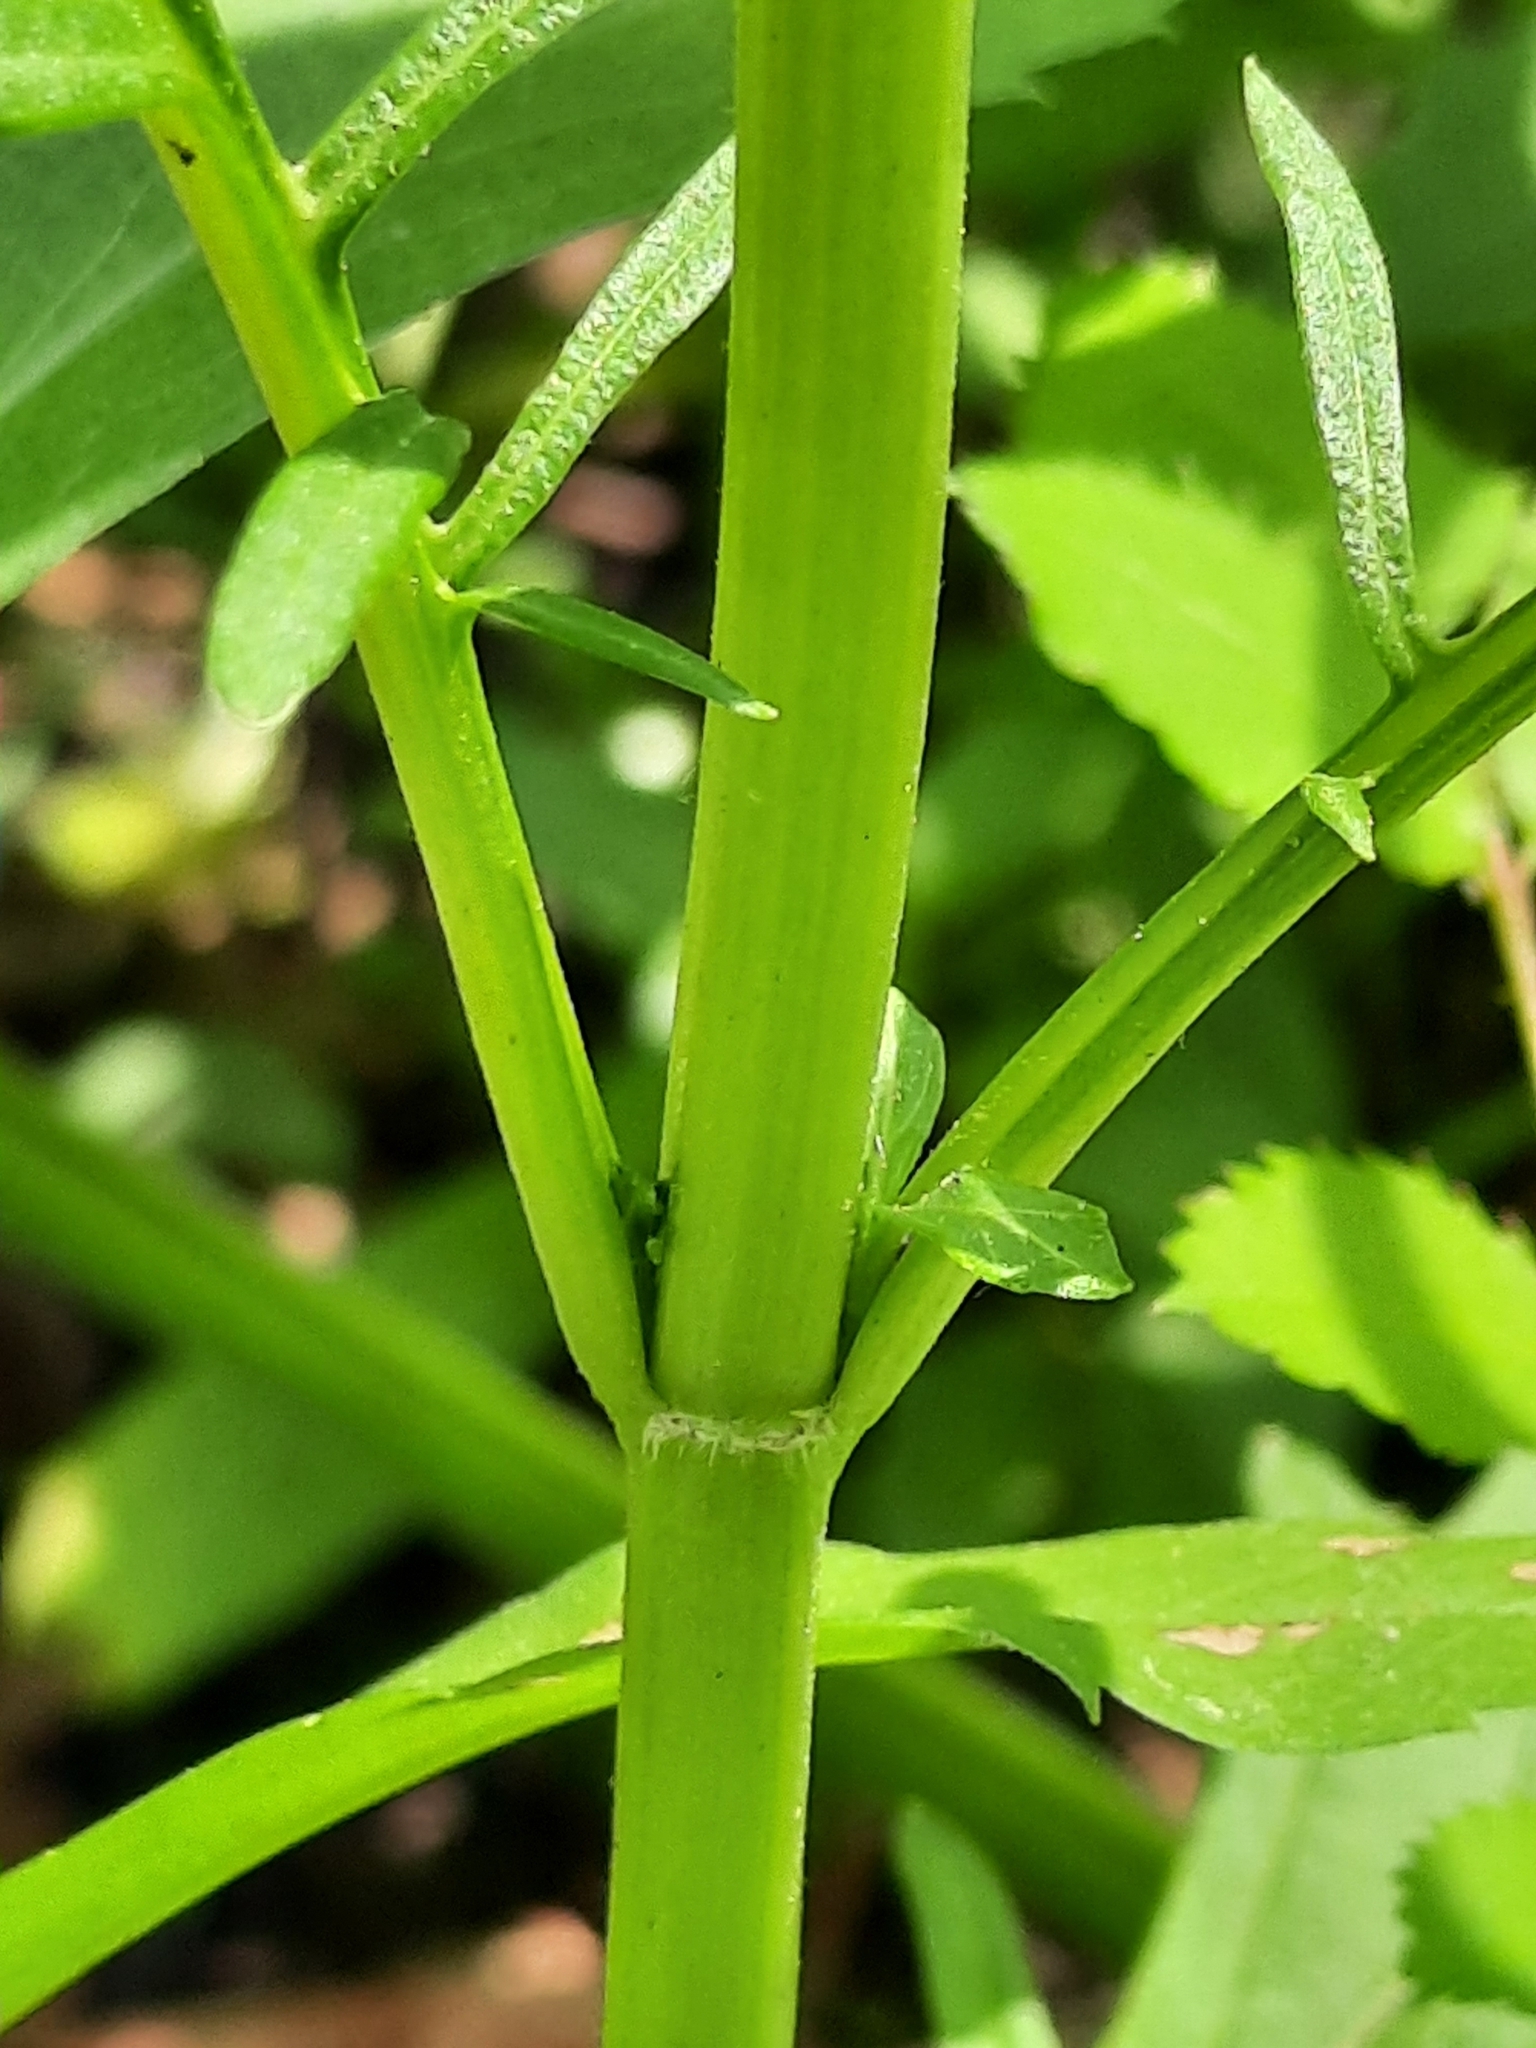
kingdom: Plantae
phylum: Tracheophyta
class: Magnoliopsida
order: Lamiales
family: Lamiaceae
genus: Lycopus
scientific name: Lycopus americanus
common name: American bugleweed
